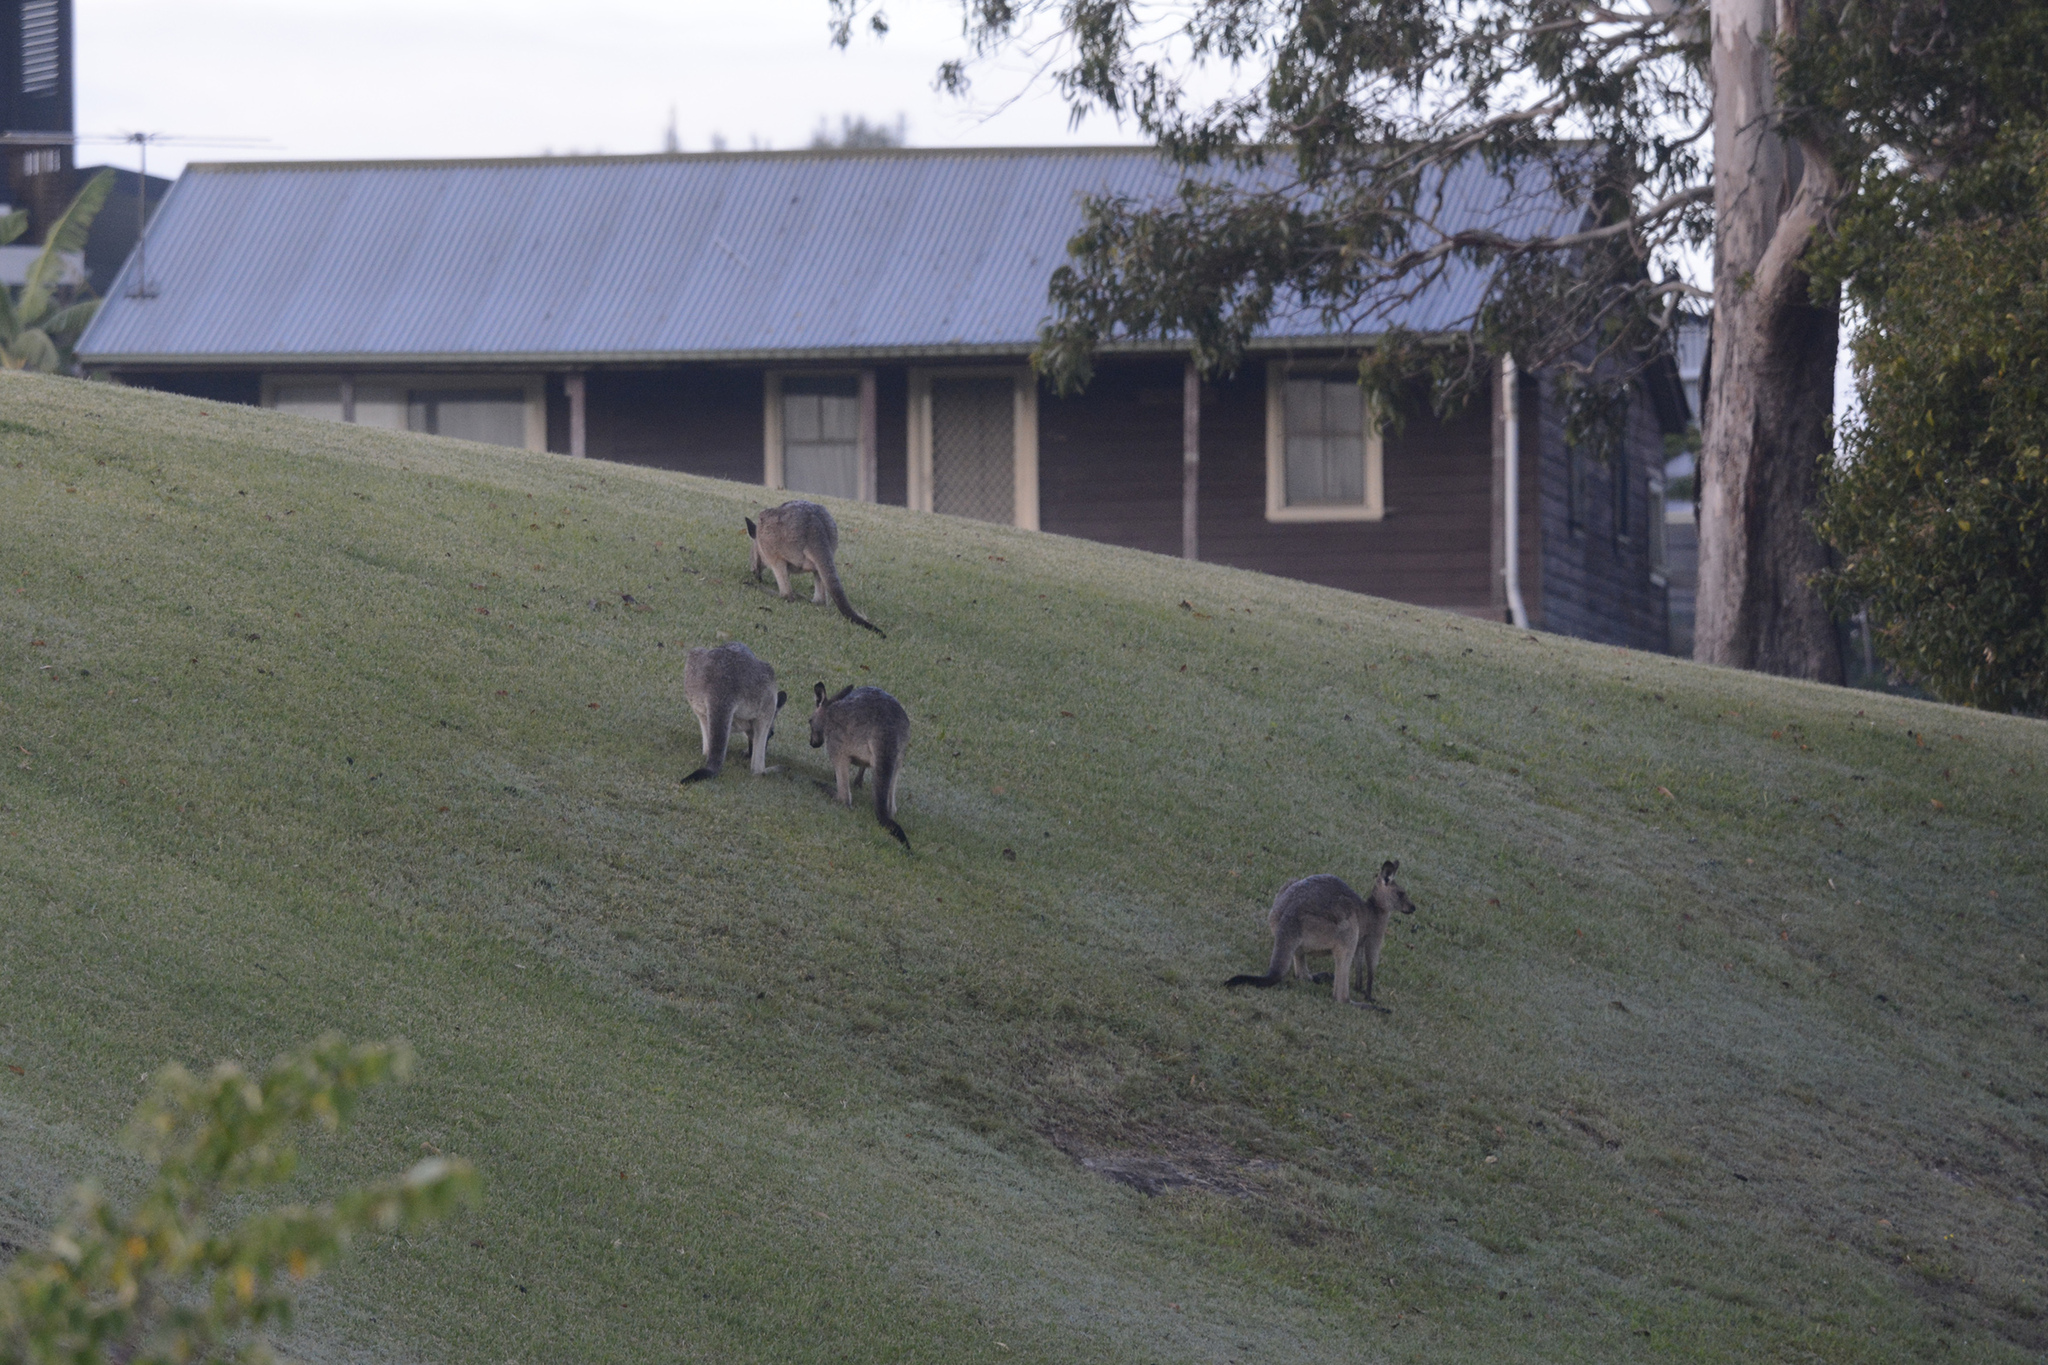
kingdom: Animalia
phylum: Chordata
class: Mammalia
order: Diprotodontia
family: Macropodidae
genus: Macropus
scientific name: Macropus giganteus
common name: Eastern grey kangaroo
